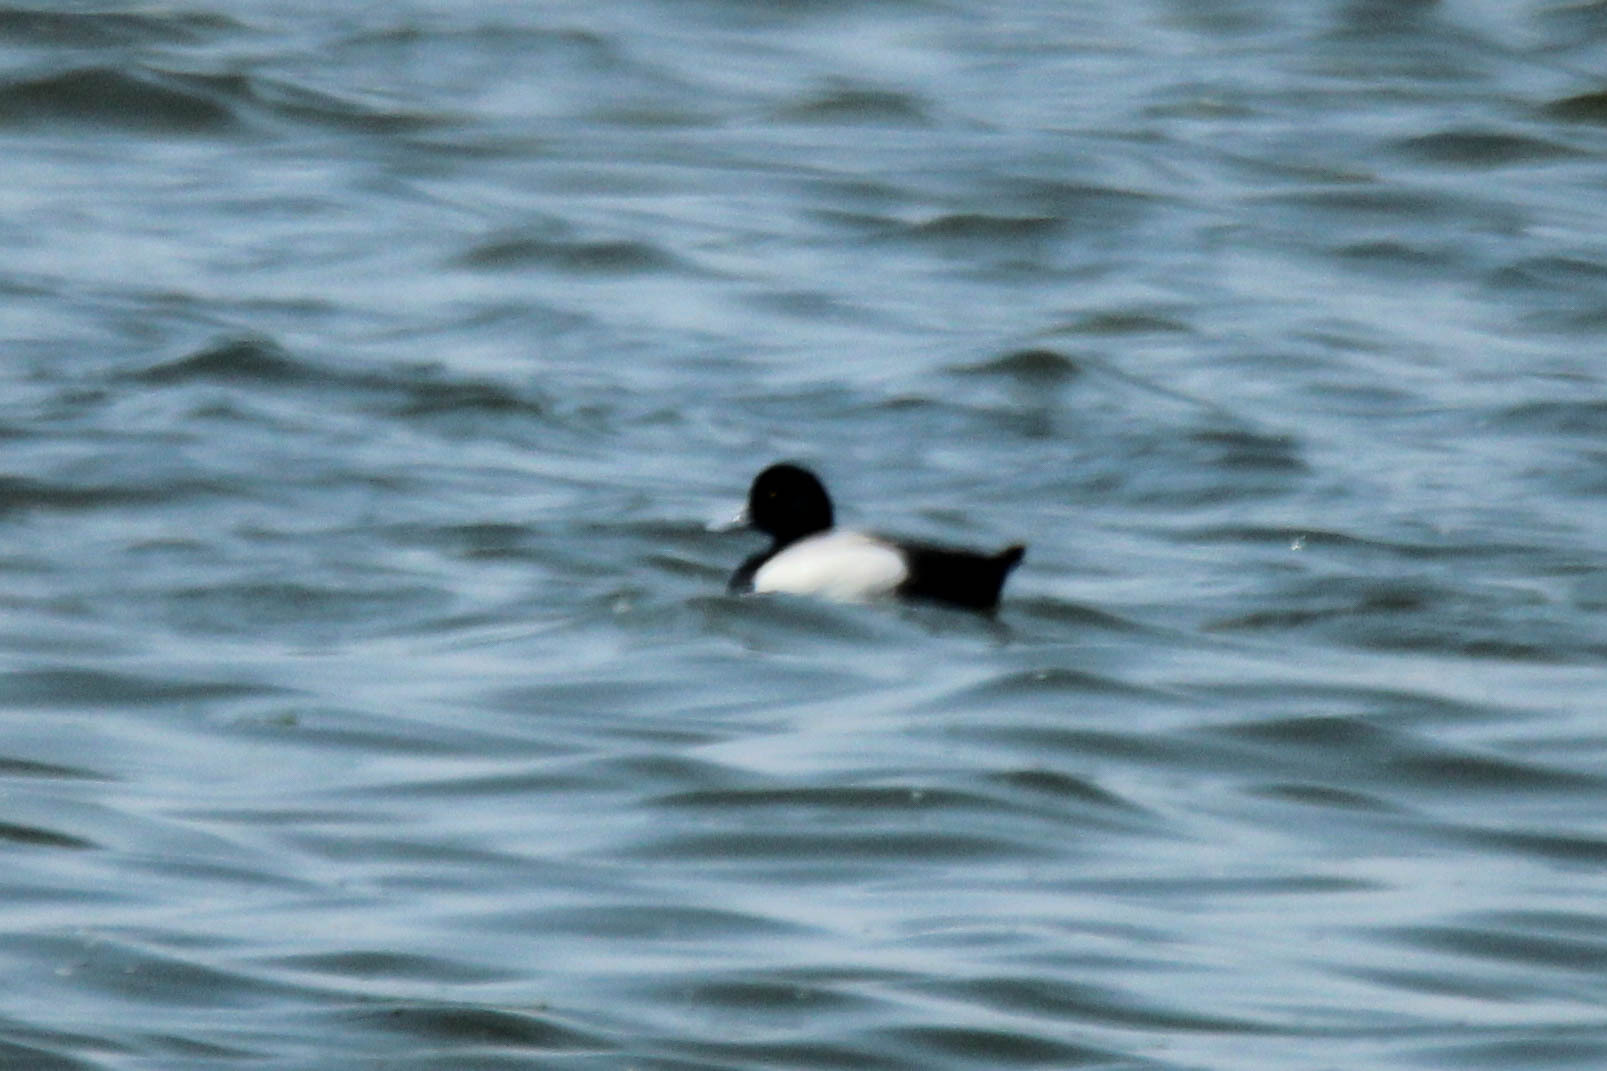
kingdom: Animalia
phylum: Chordata
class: Aves
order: Anseriformes
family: Anatidae
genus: Aythya
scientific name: Aythya marila
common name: Greater scaup
